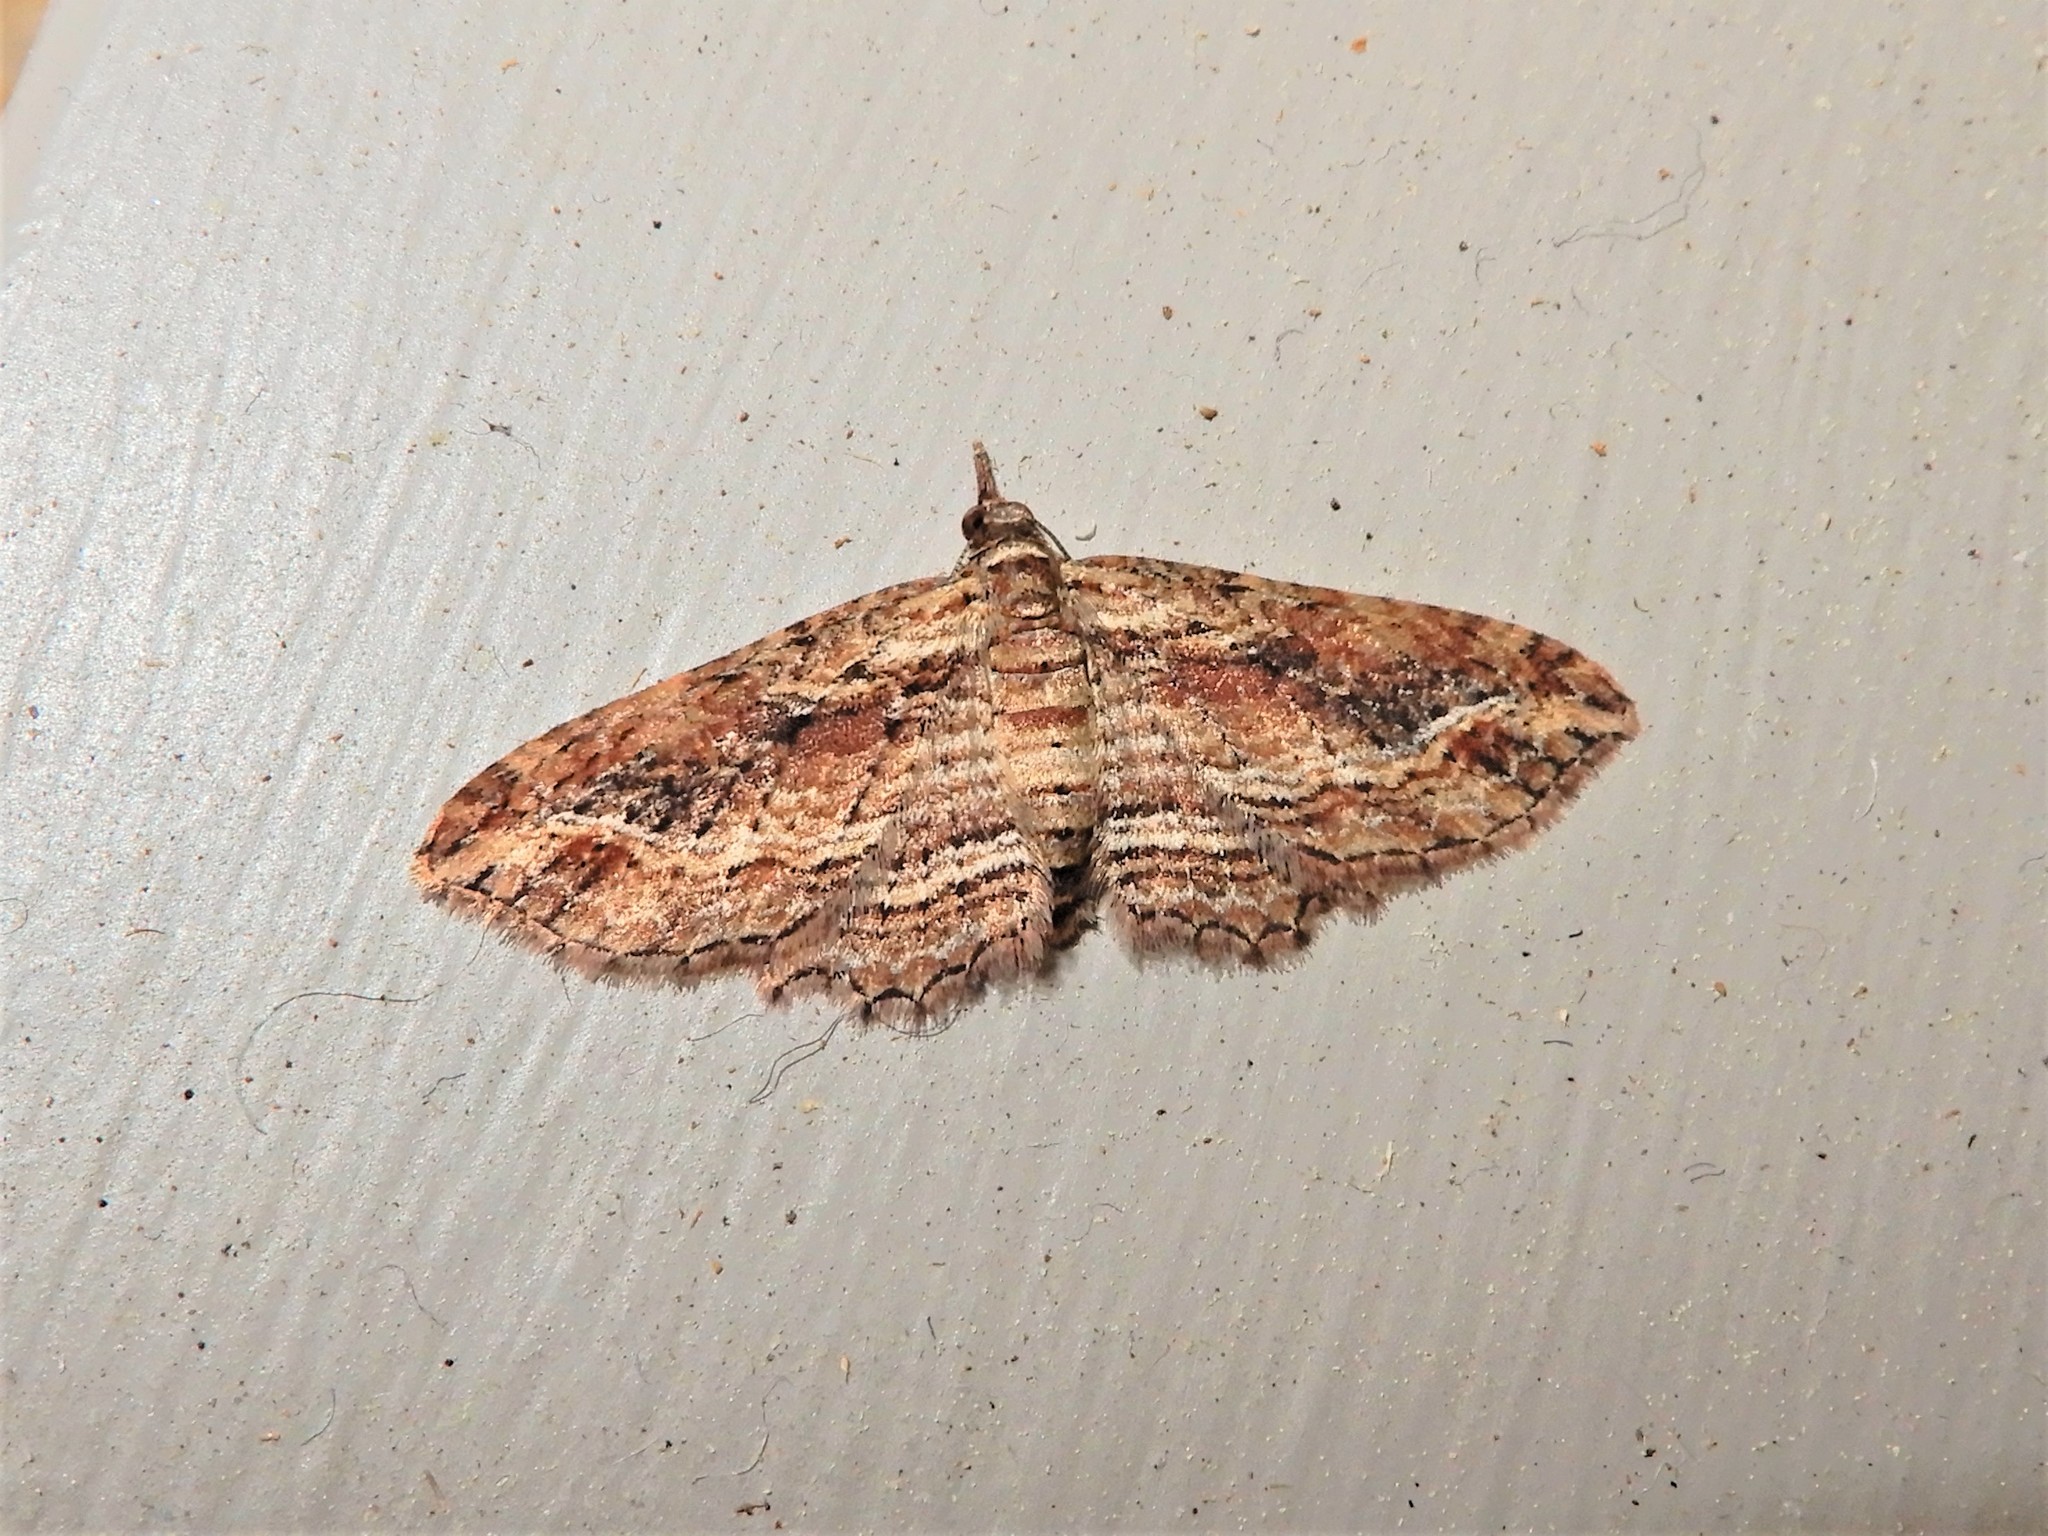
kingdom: Animalia
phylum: Arthropoda
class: Insecta
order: Lepidoptera
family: Geometridae
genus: Chloroclystis
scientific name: Chloroclystis filata
